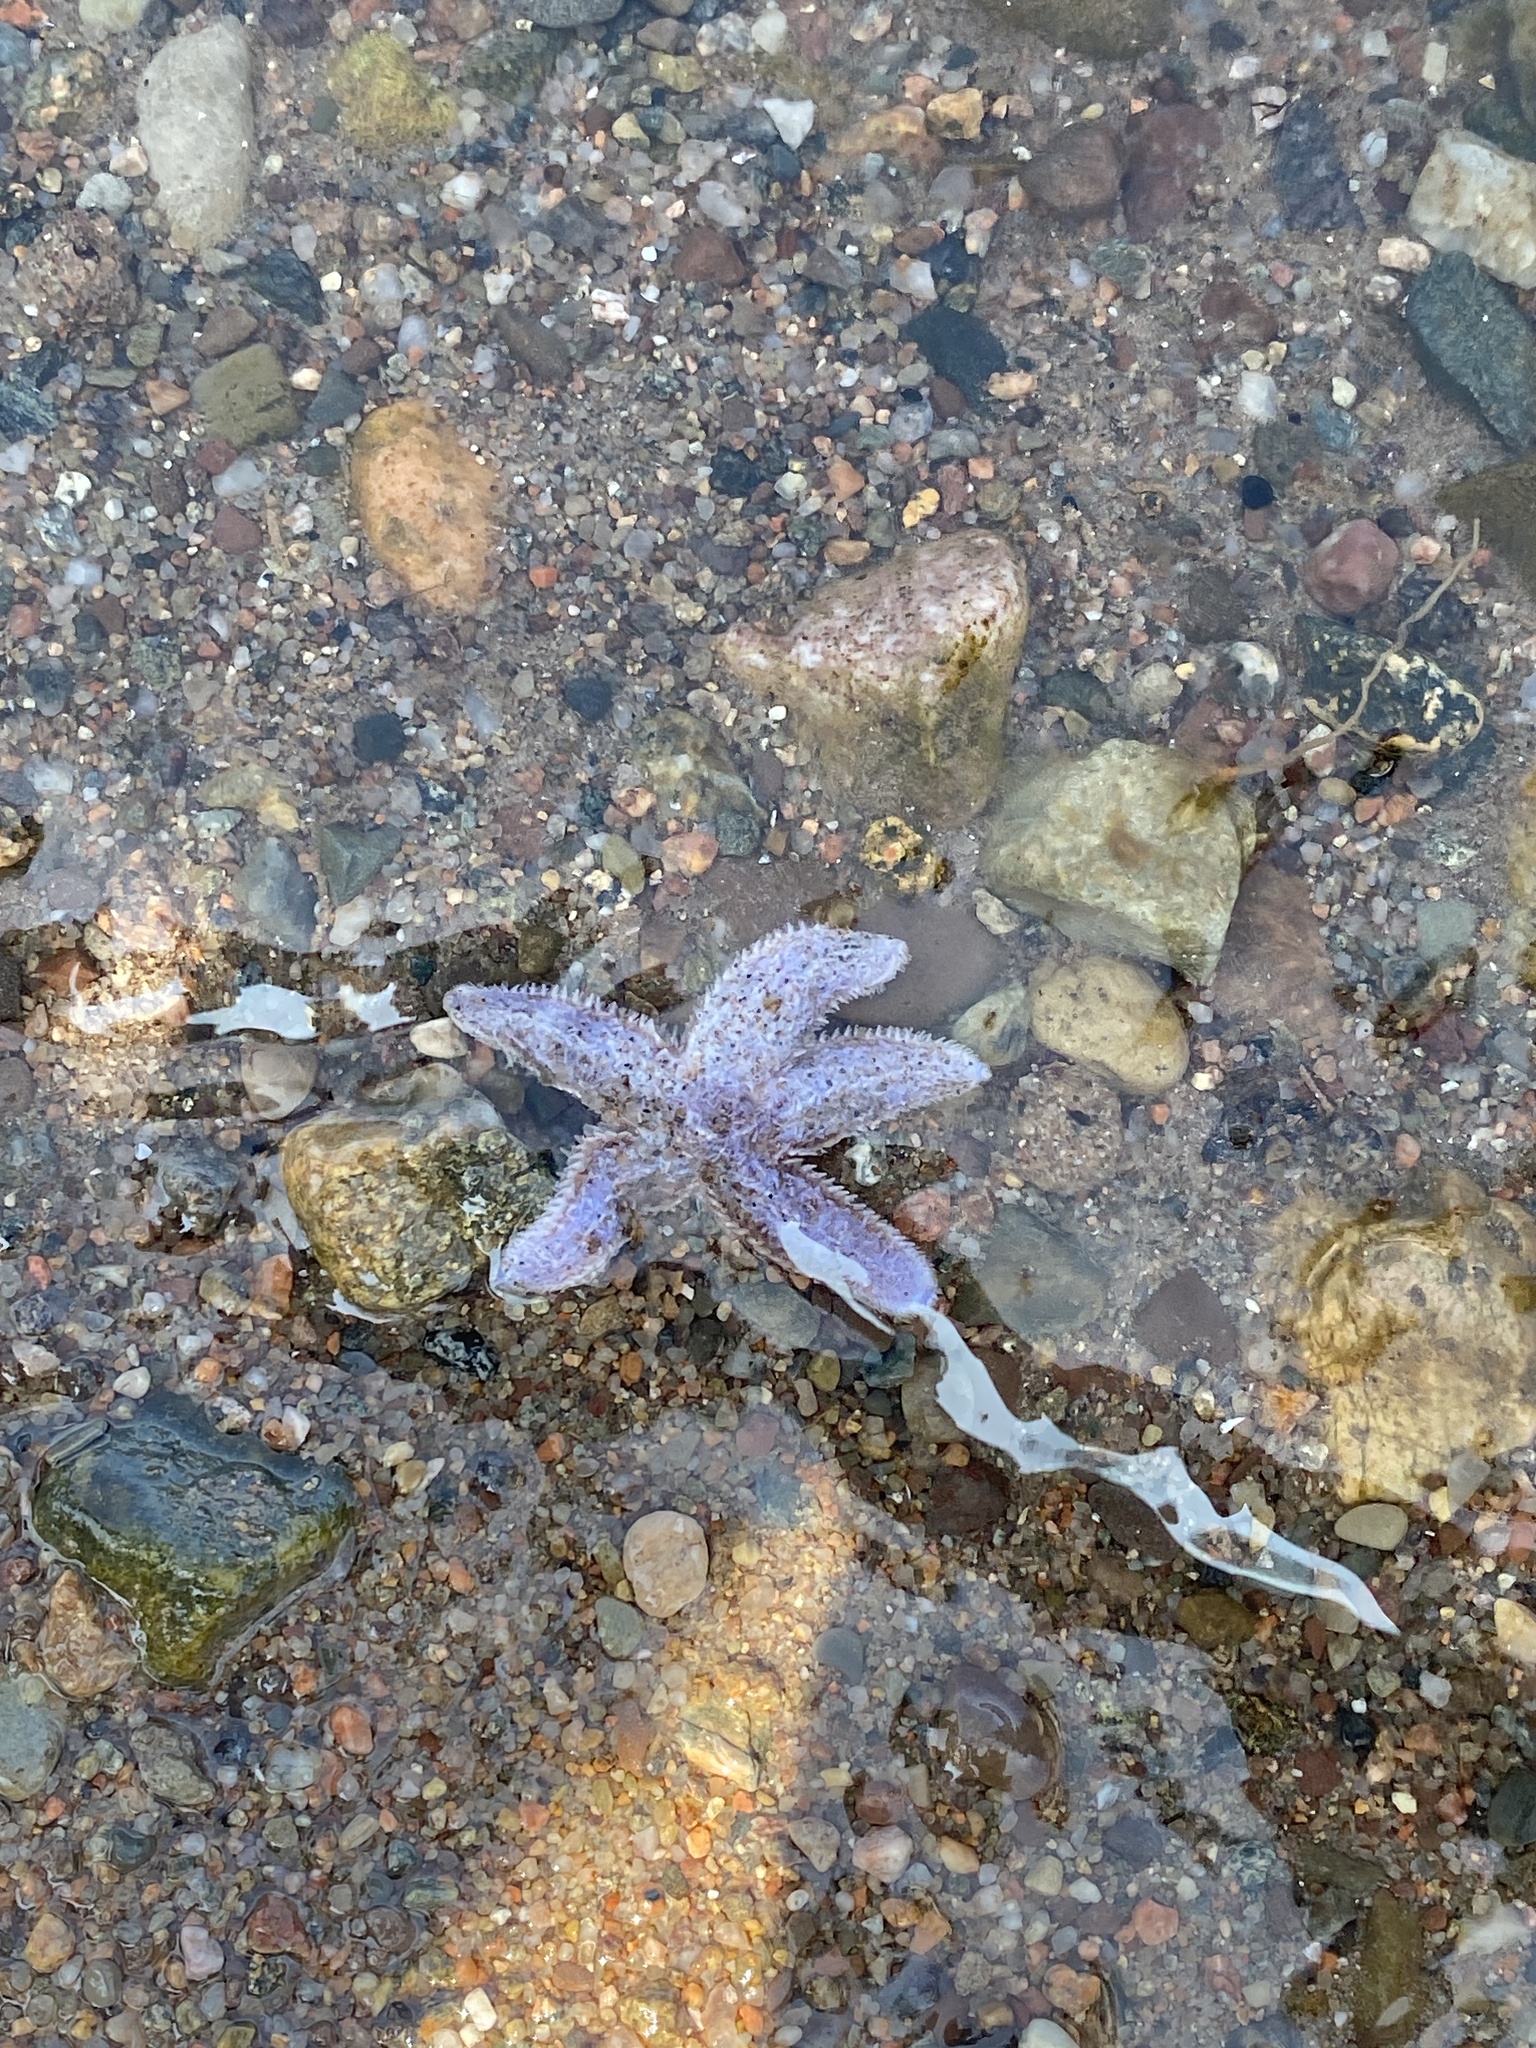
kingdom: Animalia
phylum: Echinodermata
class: Asteroidea
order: Forcipulatida
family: Asteriidae
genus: Asterias
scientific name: Asterias rubens
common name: Common starfish
